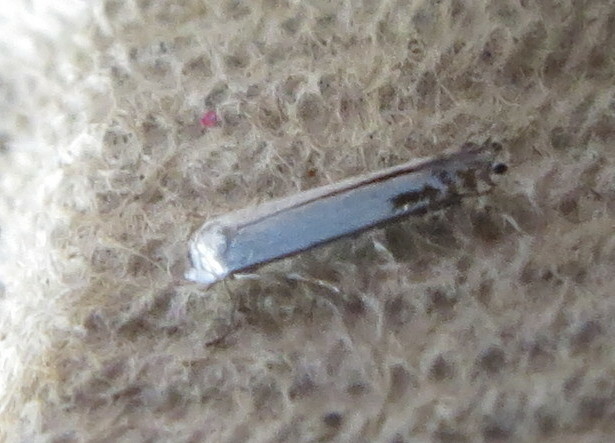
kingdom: Animalia
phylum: Arthropoda
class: Insecta
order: Lepidoptera
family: Lyonetiidae
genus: Lyonetia
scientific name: Lyonetia clerkella
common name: Apple leaf miner
